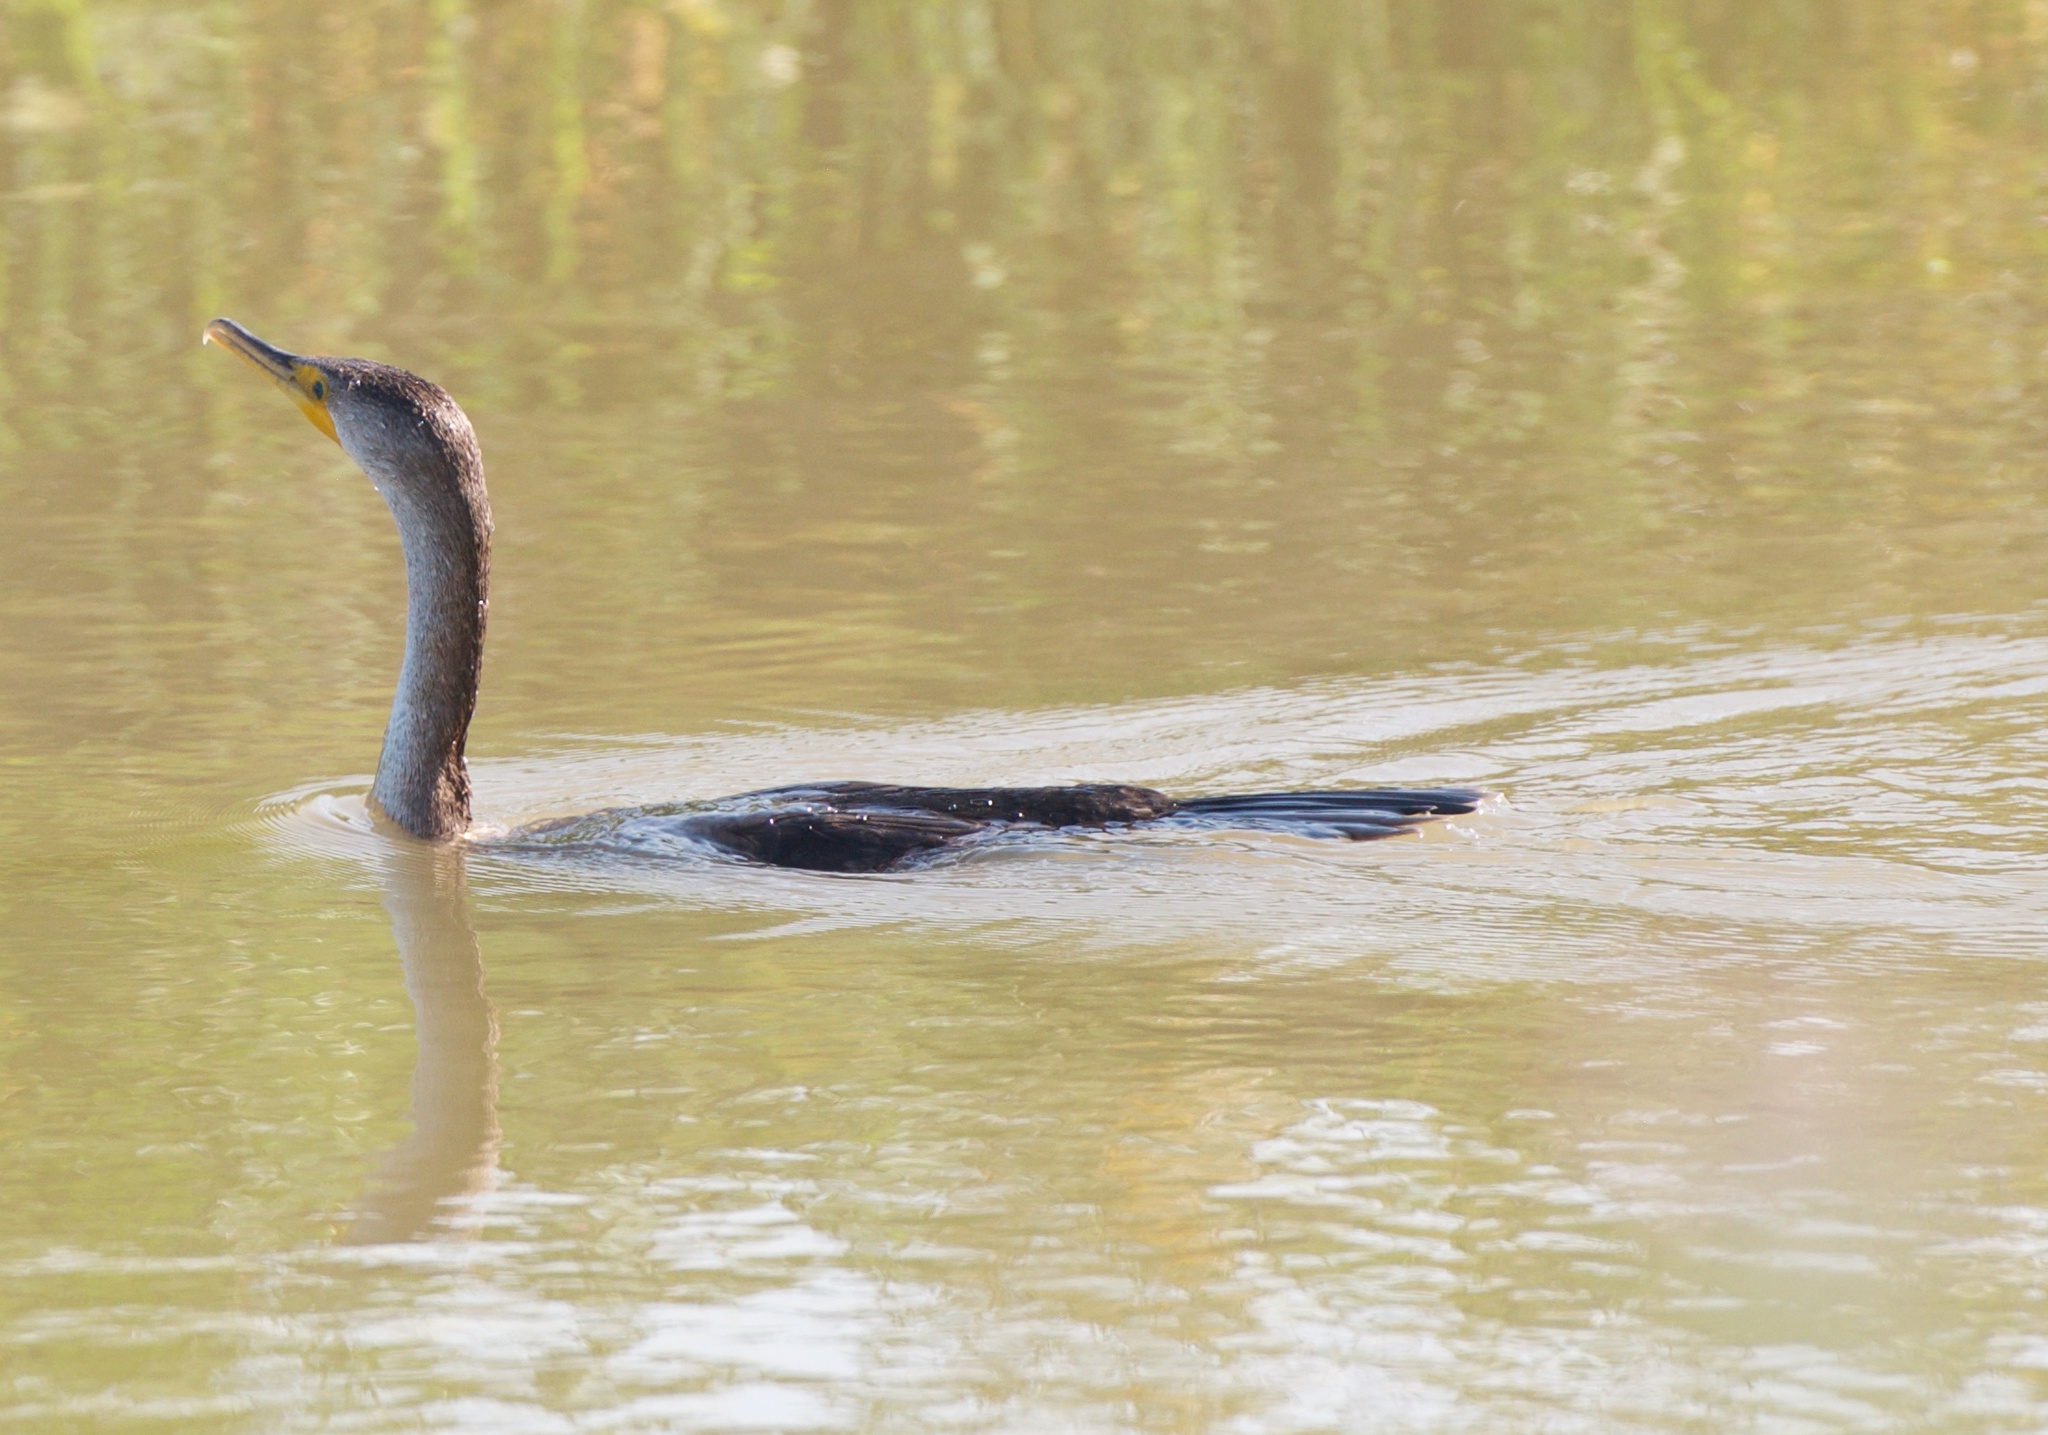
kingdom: Animalia
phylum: Chordata
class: Aves
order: Suliformes
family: Phalacrocoracidae
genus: Phalacrocorax
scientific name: Phalacrocorax auritus
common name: Double-crested cormorant
